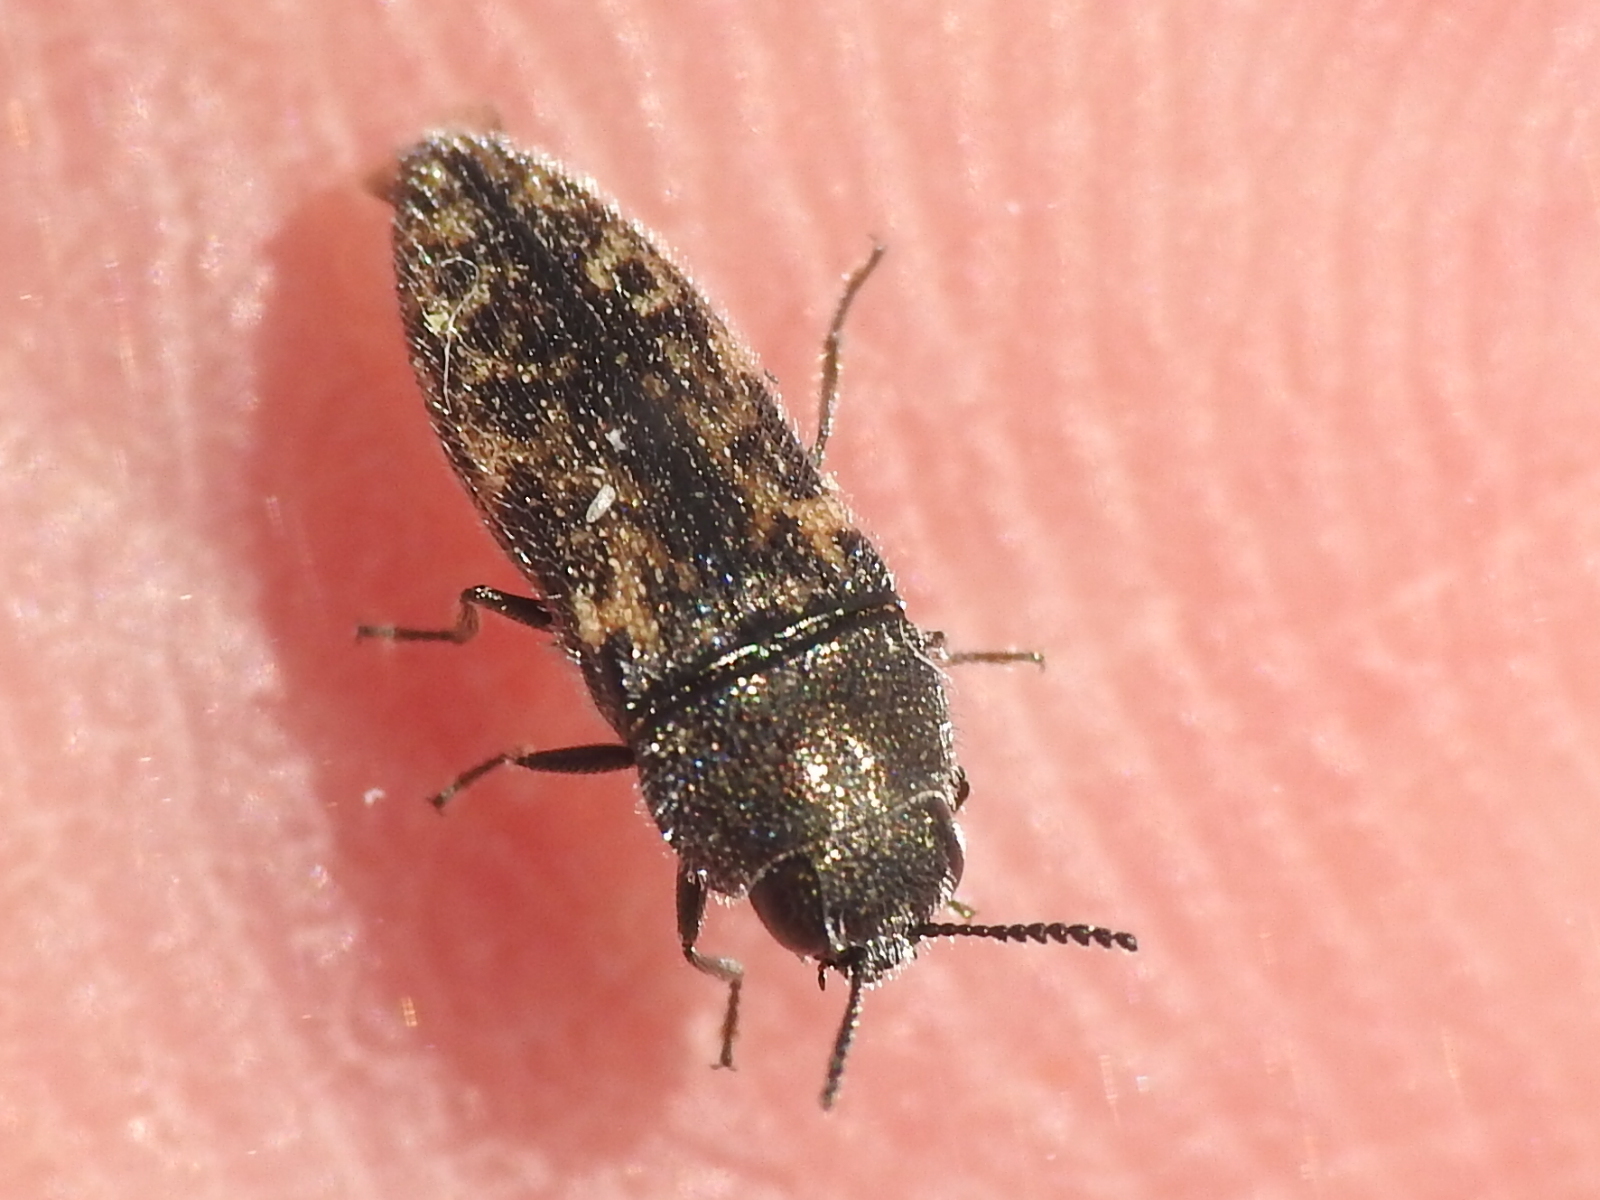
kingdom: Animalia
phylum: Arthropoda
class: Insecta
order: Coleoptera
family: Buprestidae
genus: Acmaeodera
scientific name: Acmaeodera neglecta
